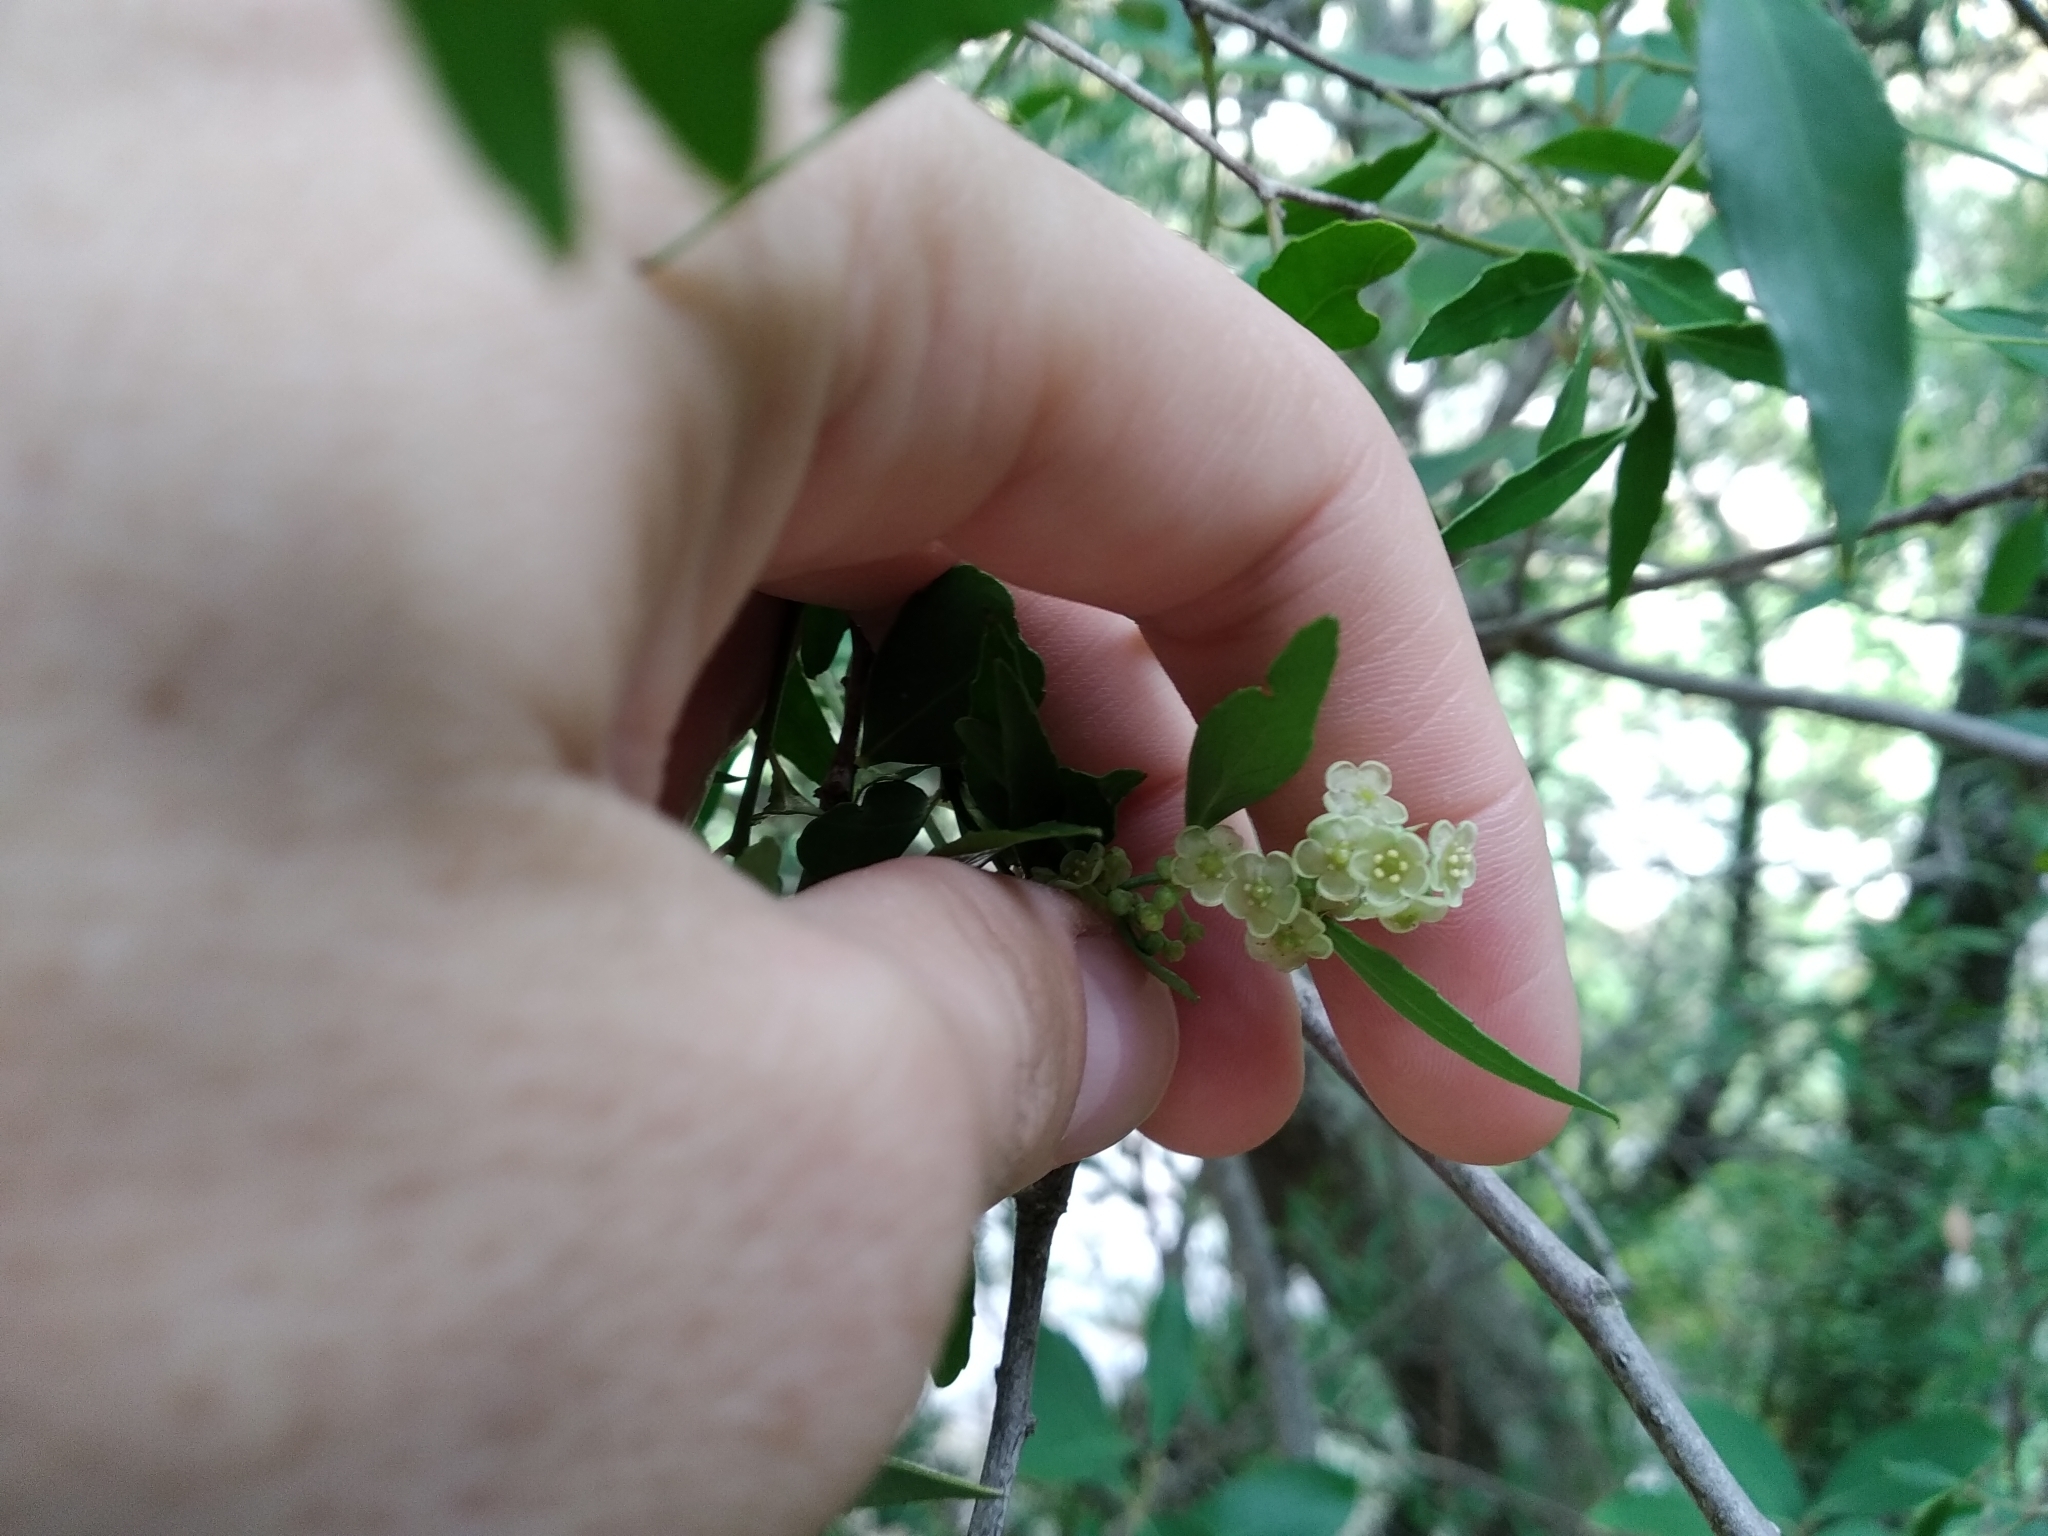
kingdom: Plantae
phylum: Tracheophyta
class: Magnoliopsida
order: Celastrales
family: Celastraceae
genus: Gymnosporia
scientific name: Gymnosporia acuminata
